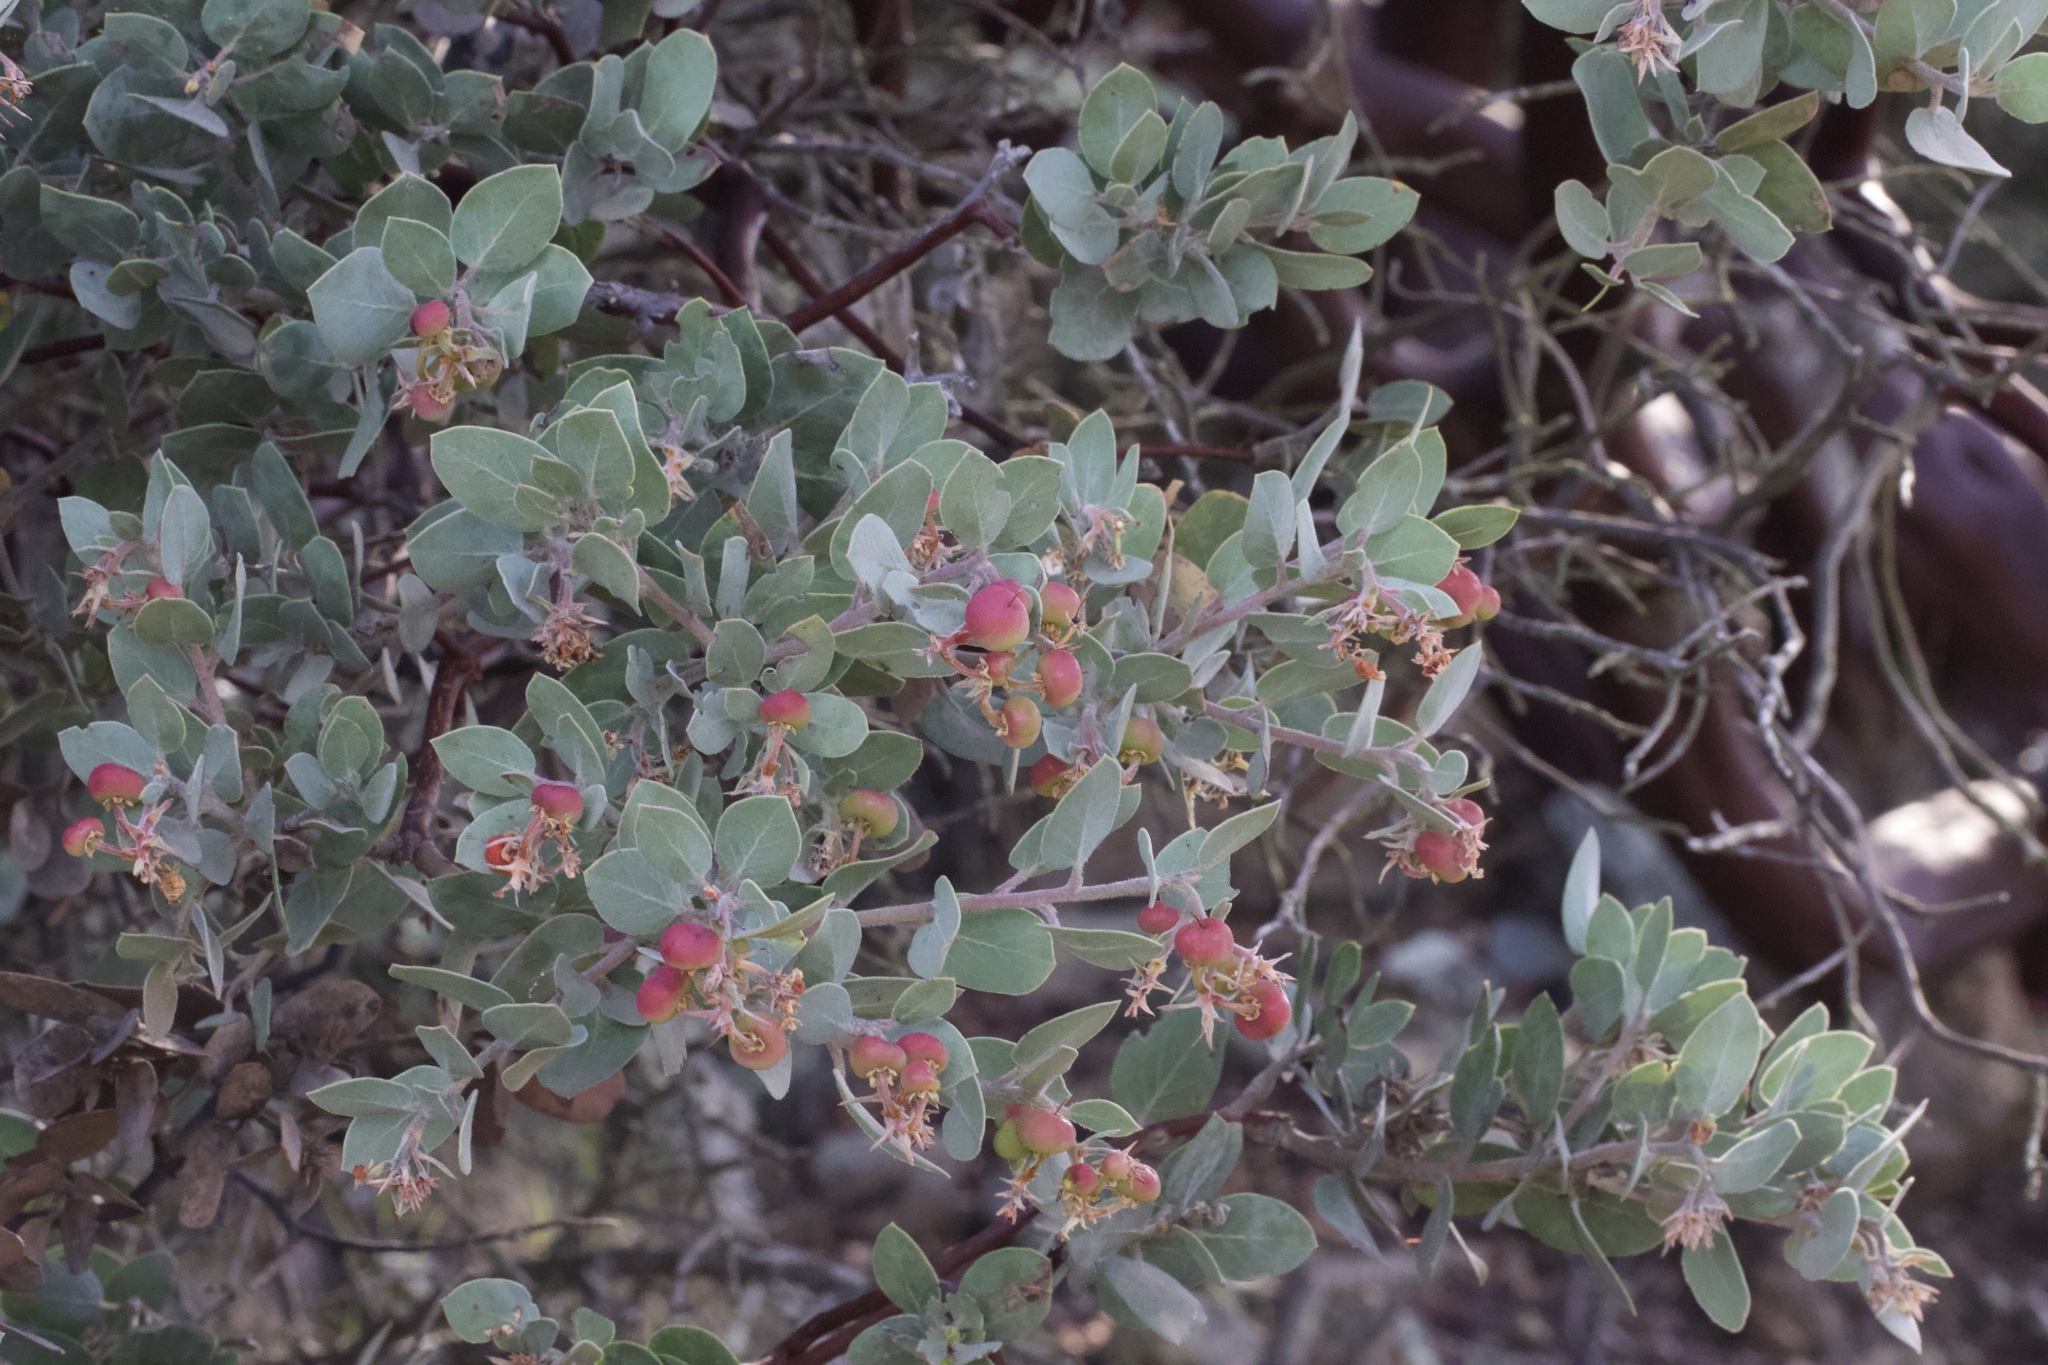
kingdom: Plantae
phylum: Tracheophyta
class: Magnoliopsida
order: Ericales
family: Ericaceae
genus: Arctostaphylos
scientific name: Arctostaphylos obispoensis
